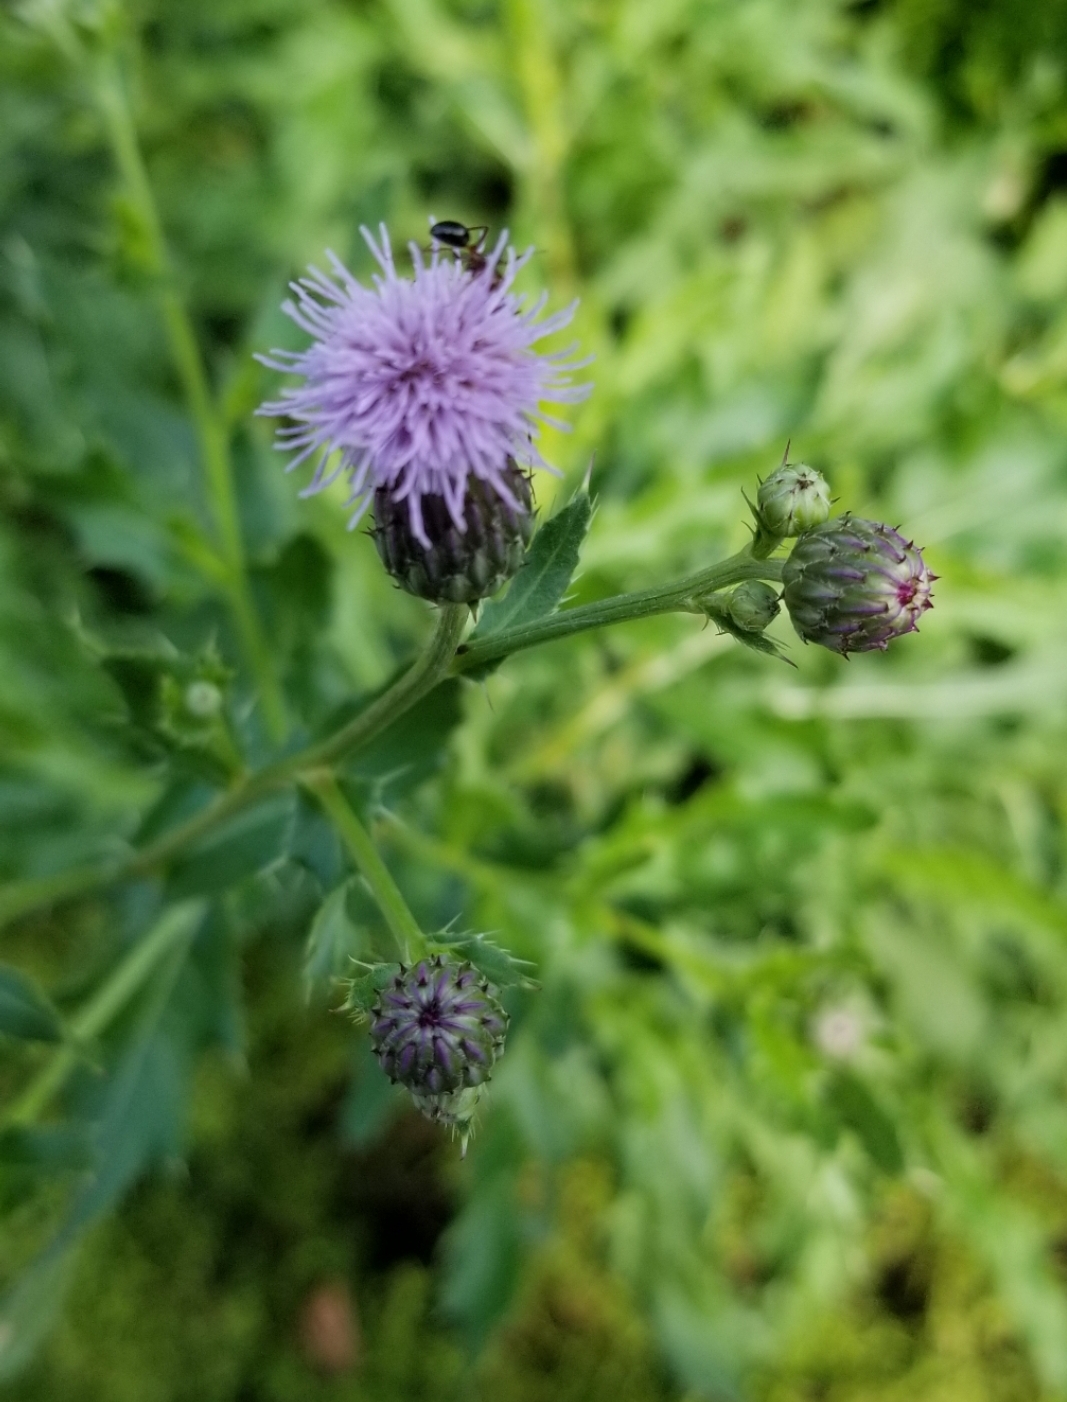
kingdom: Plantae
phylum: Tracheophyta
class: Magnoliopsida
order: Asterales
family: Asteraceae
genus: Cirsium
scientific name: Cirsium arvense
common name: Creeping thistle
